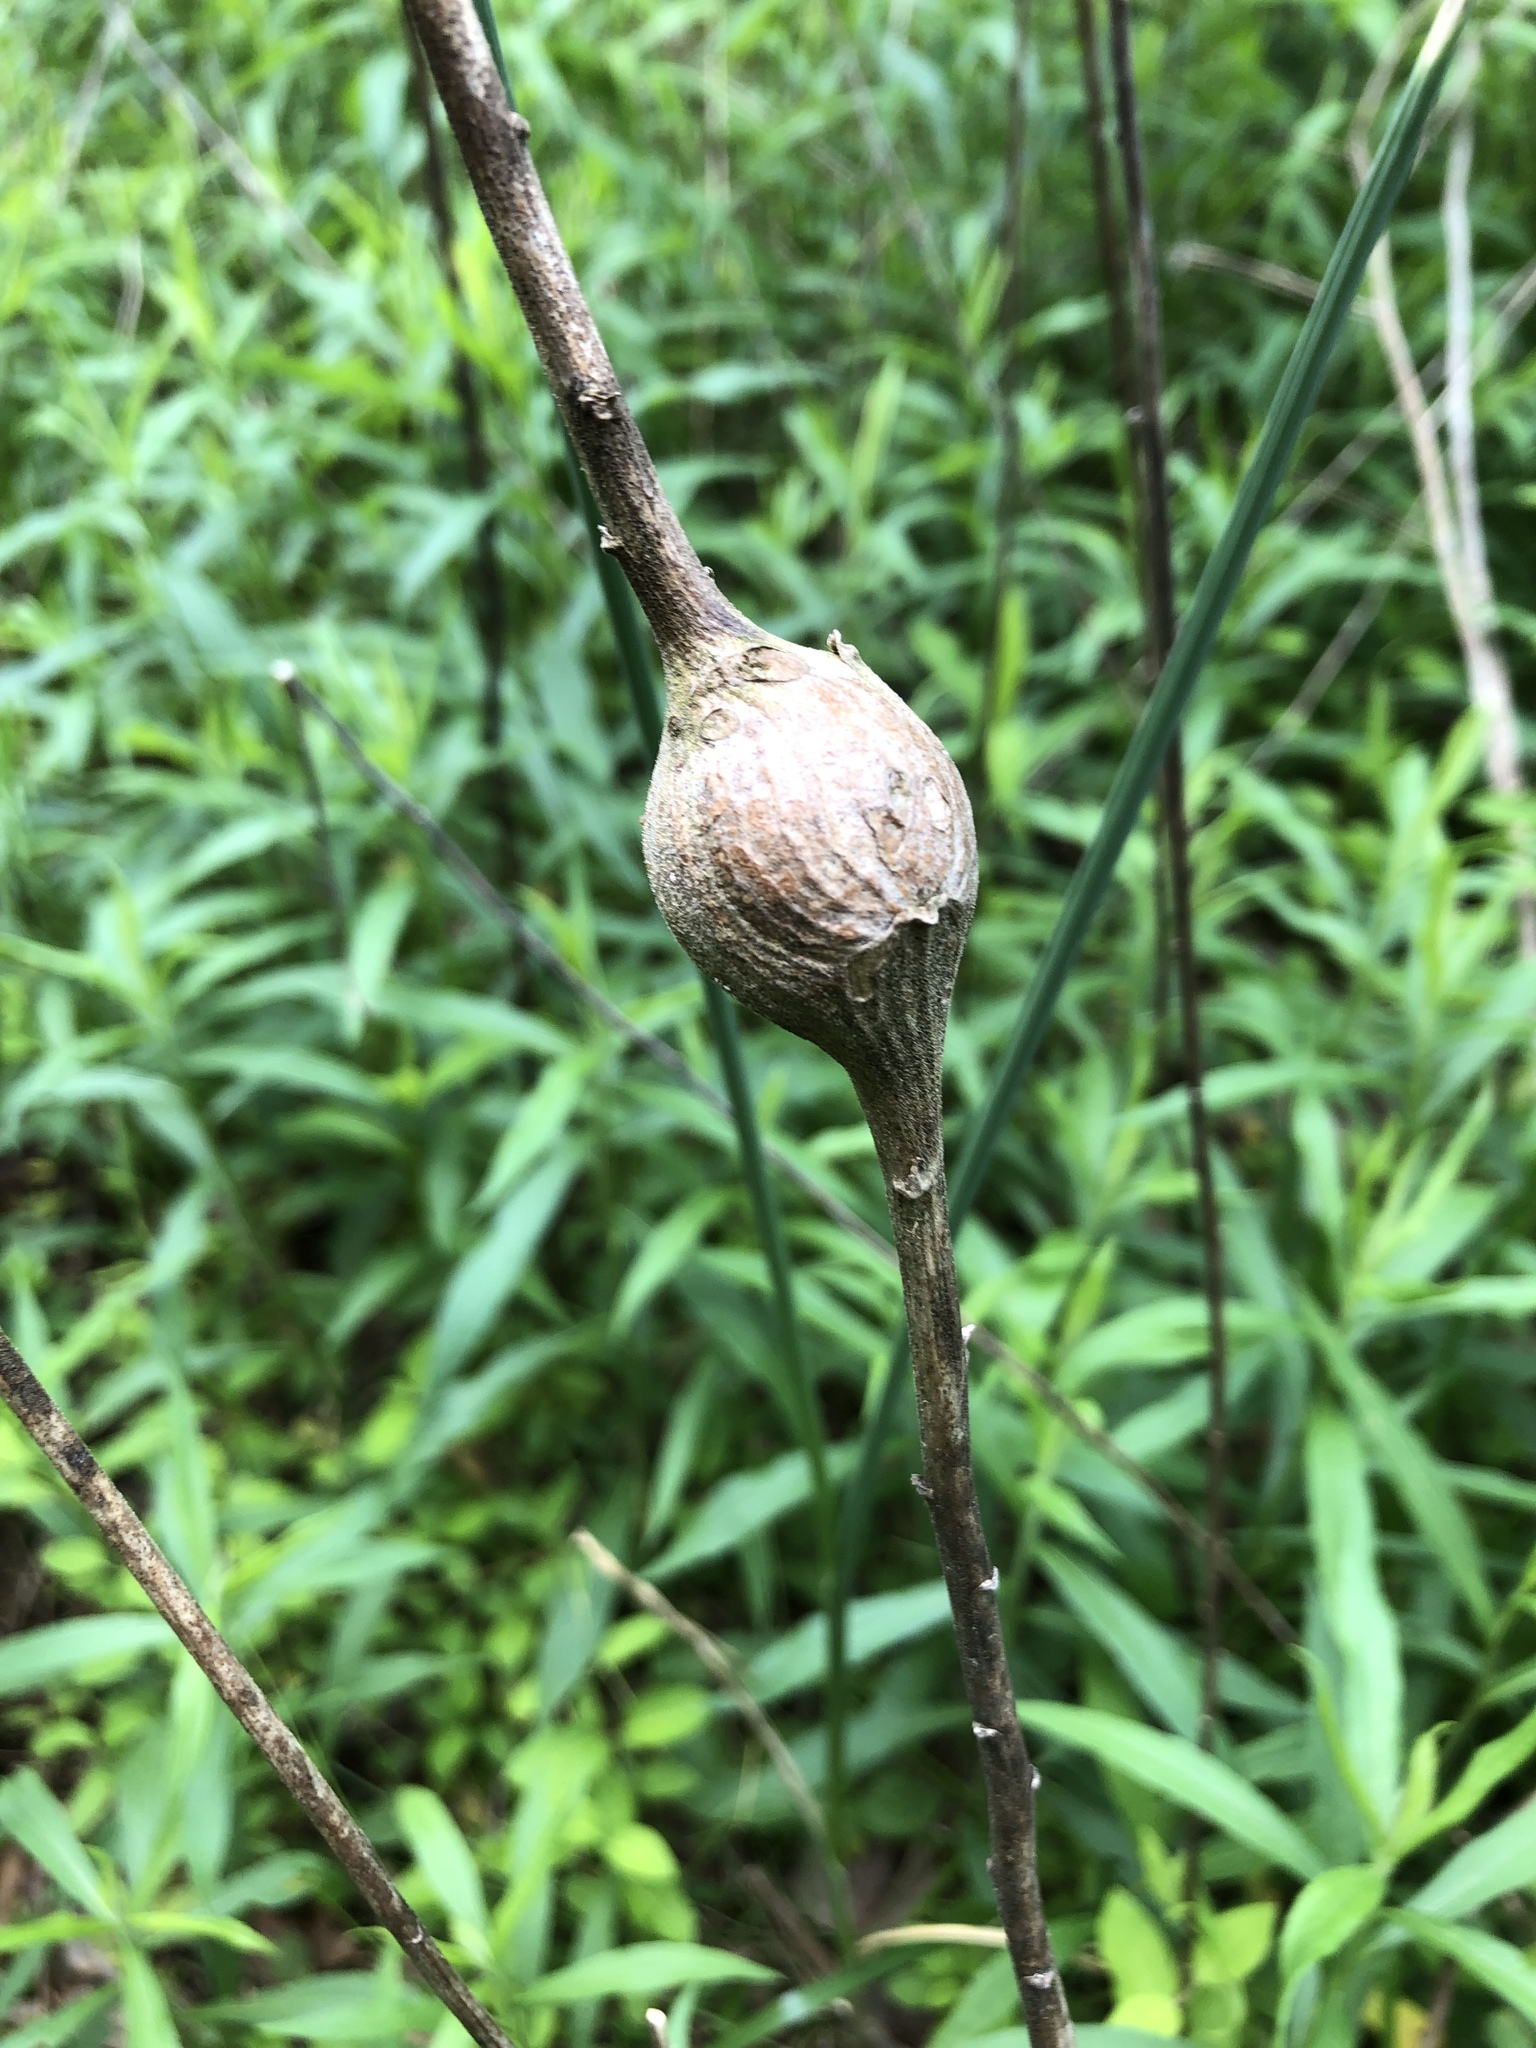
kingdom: Animalia
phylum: Arthropoda
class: Insecta
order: Diptera
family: Tephritidae
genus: Eurosta
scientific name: Eurosta solidaginis
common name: Goldenrod gall fly
